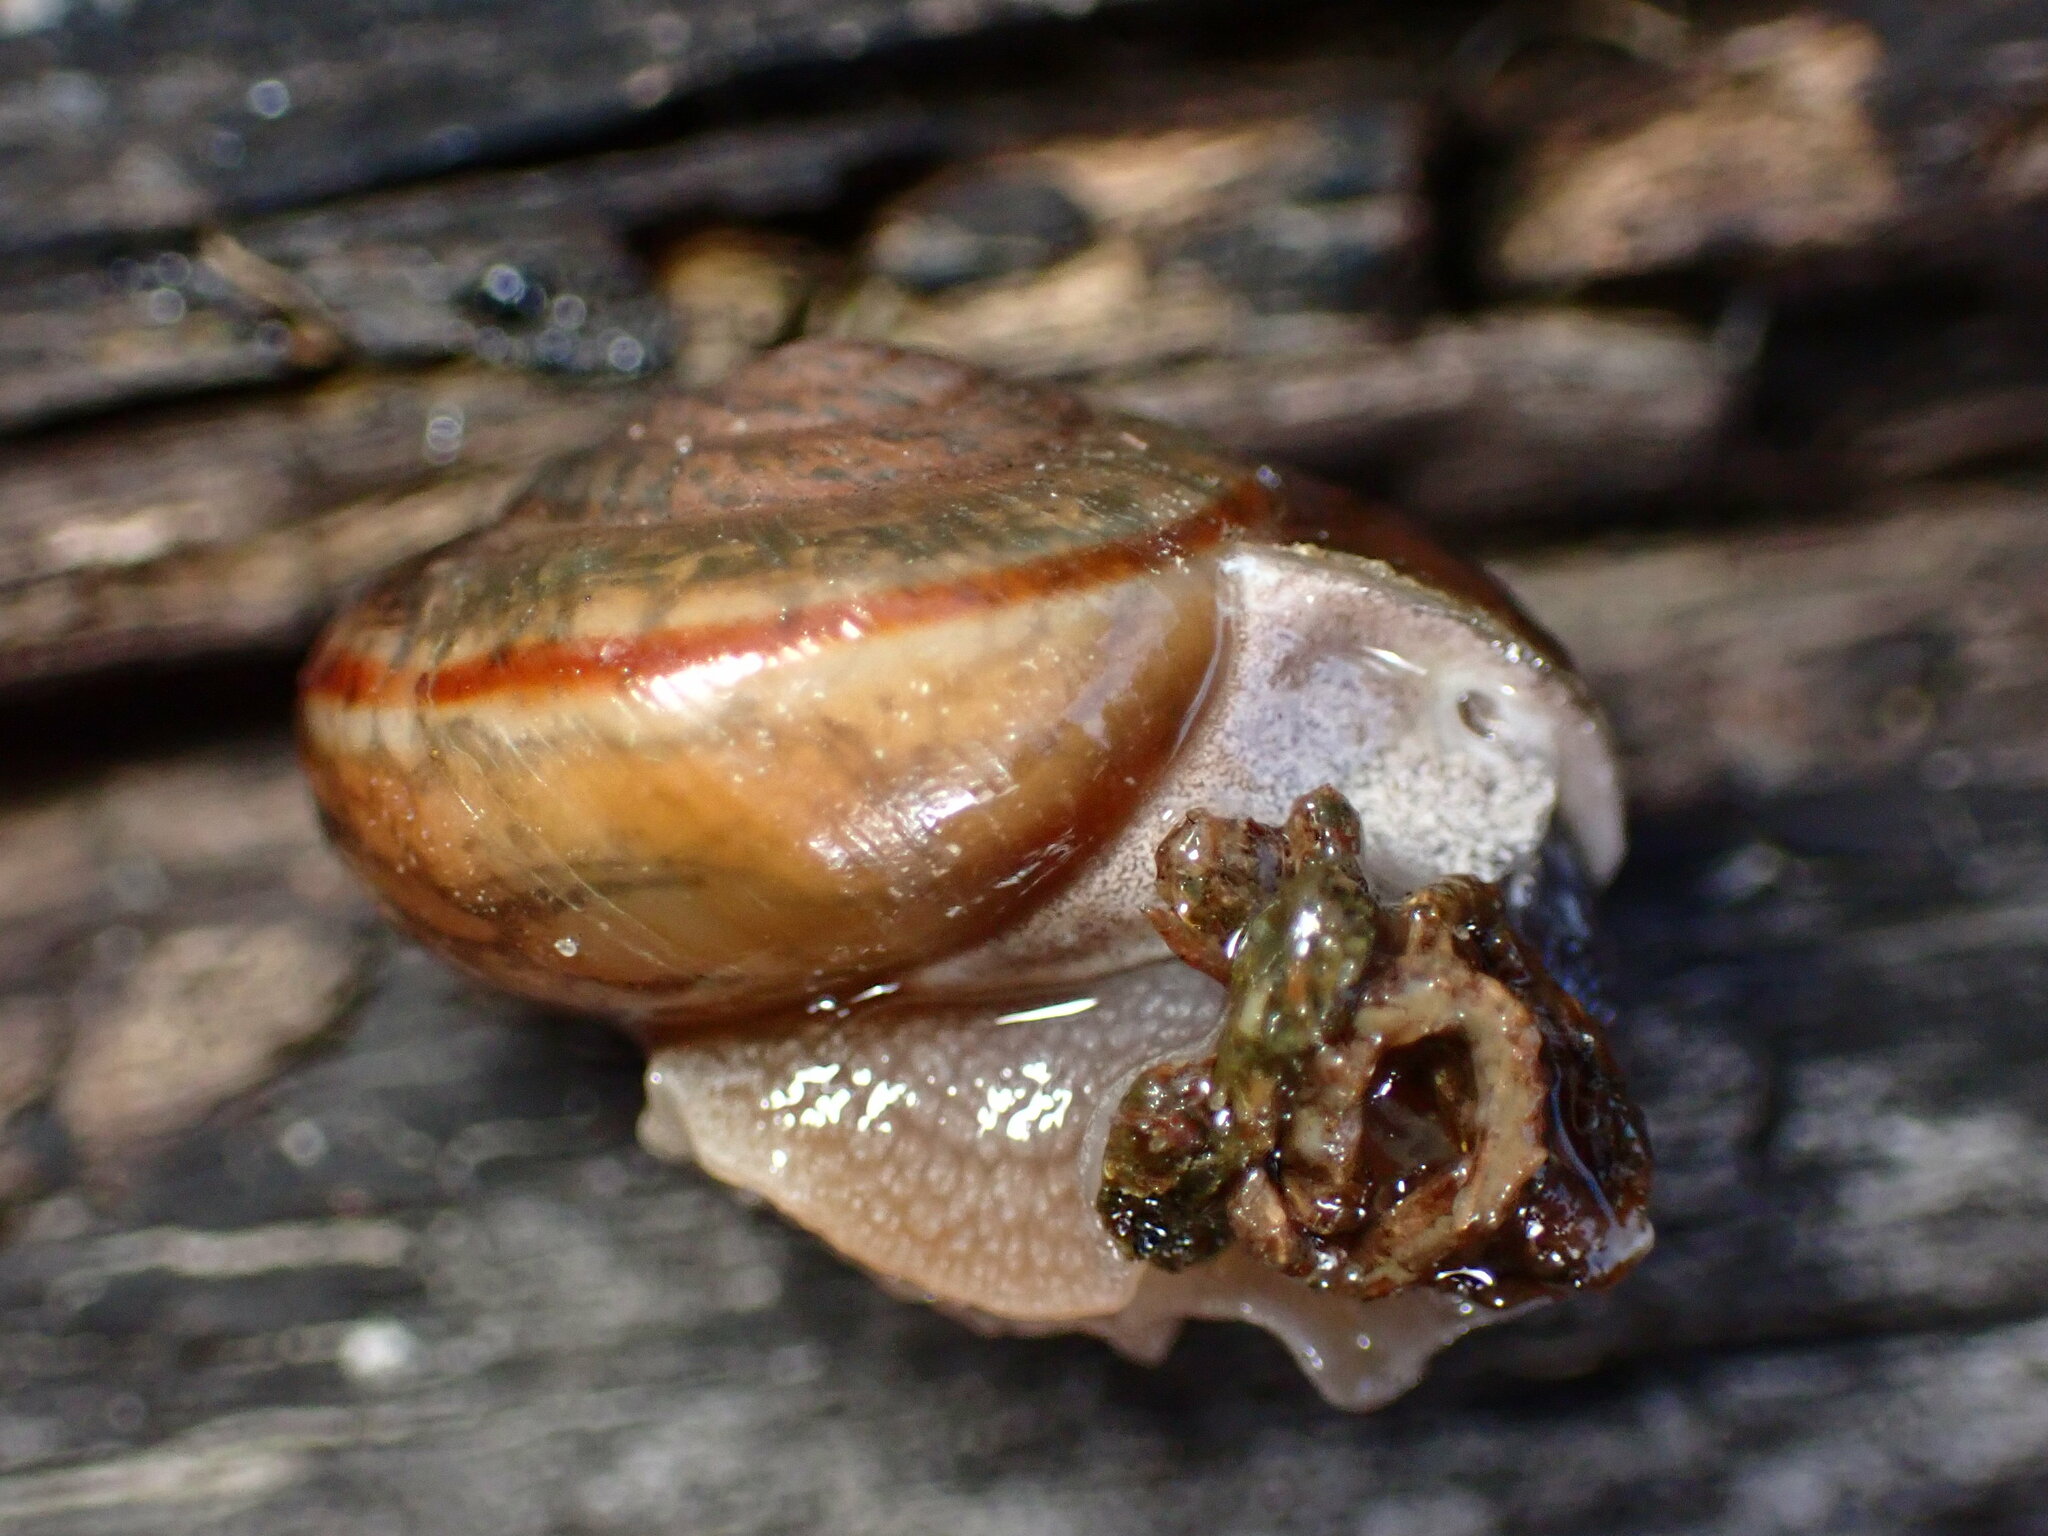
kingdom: Animalia
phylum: Mollusca
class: Gastropoda
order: Stylommatophora
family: Xanthonychidae
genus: Helminthoglypta
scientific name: Helminthoglypta umbilicata
